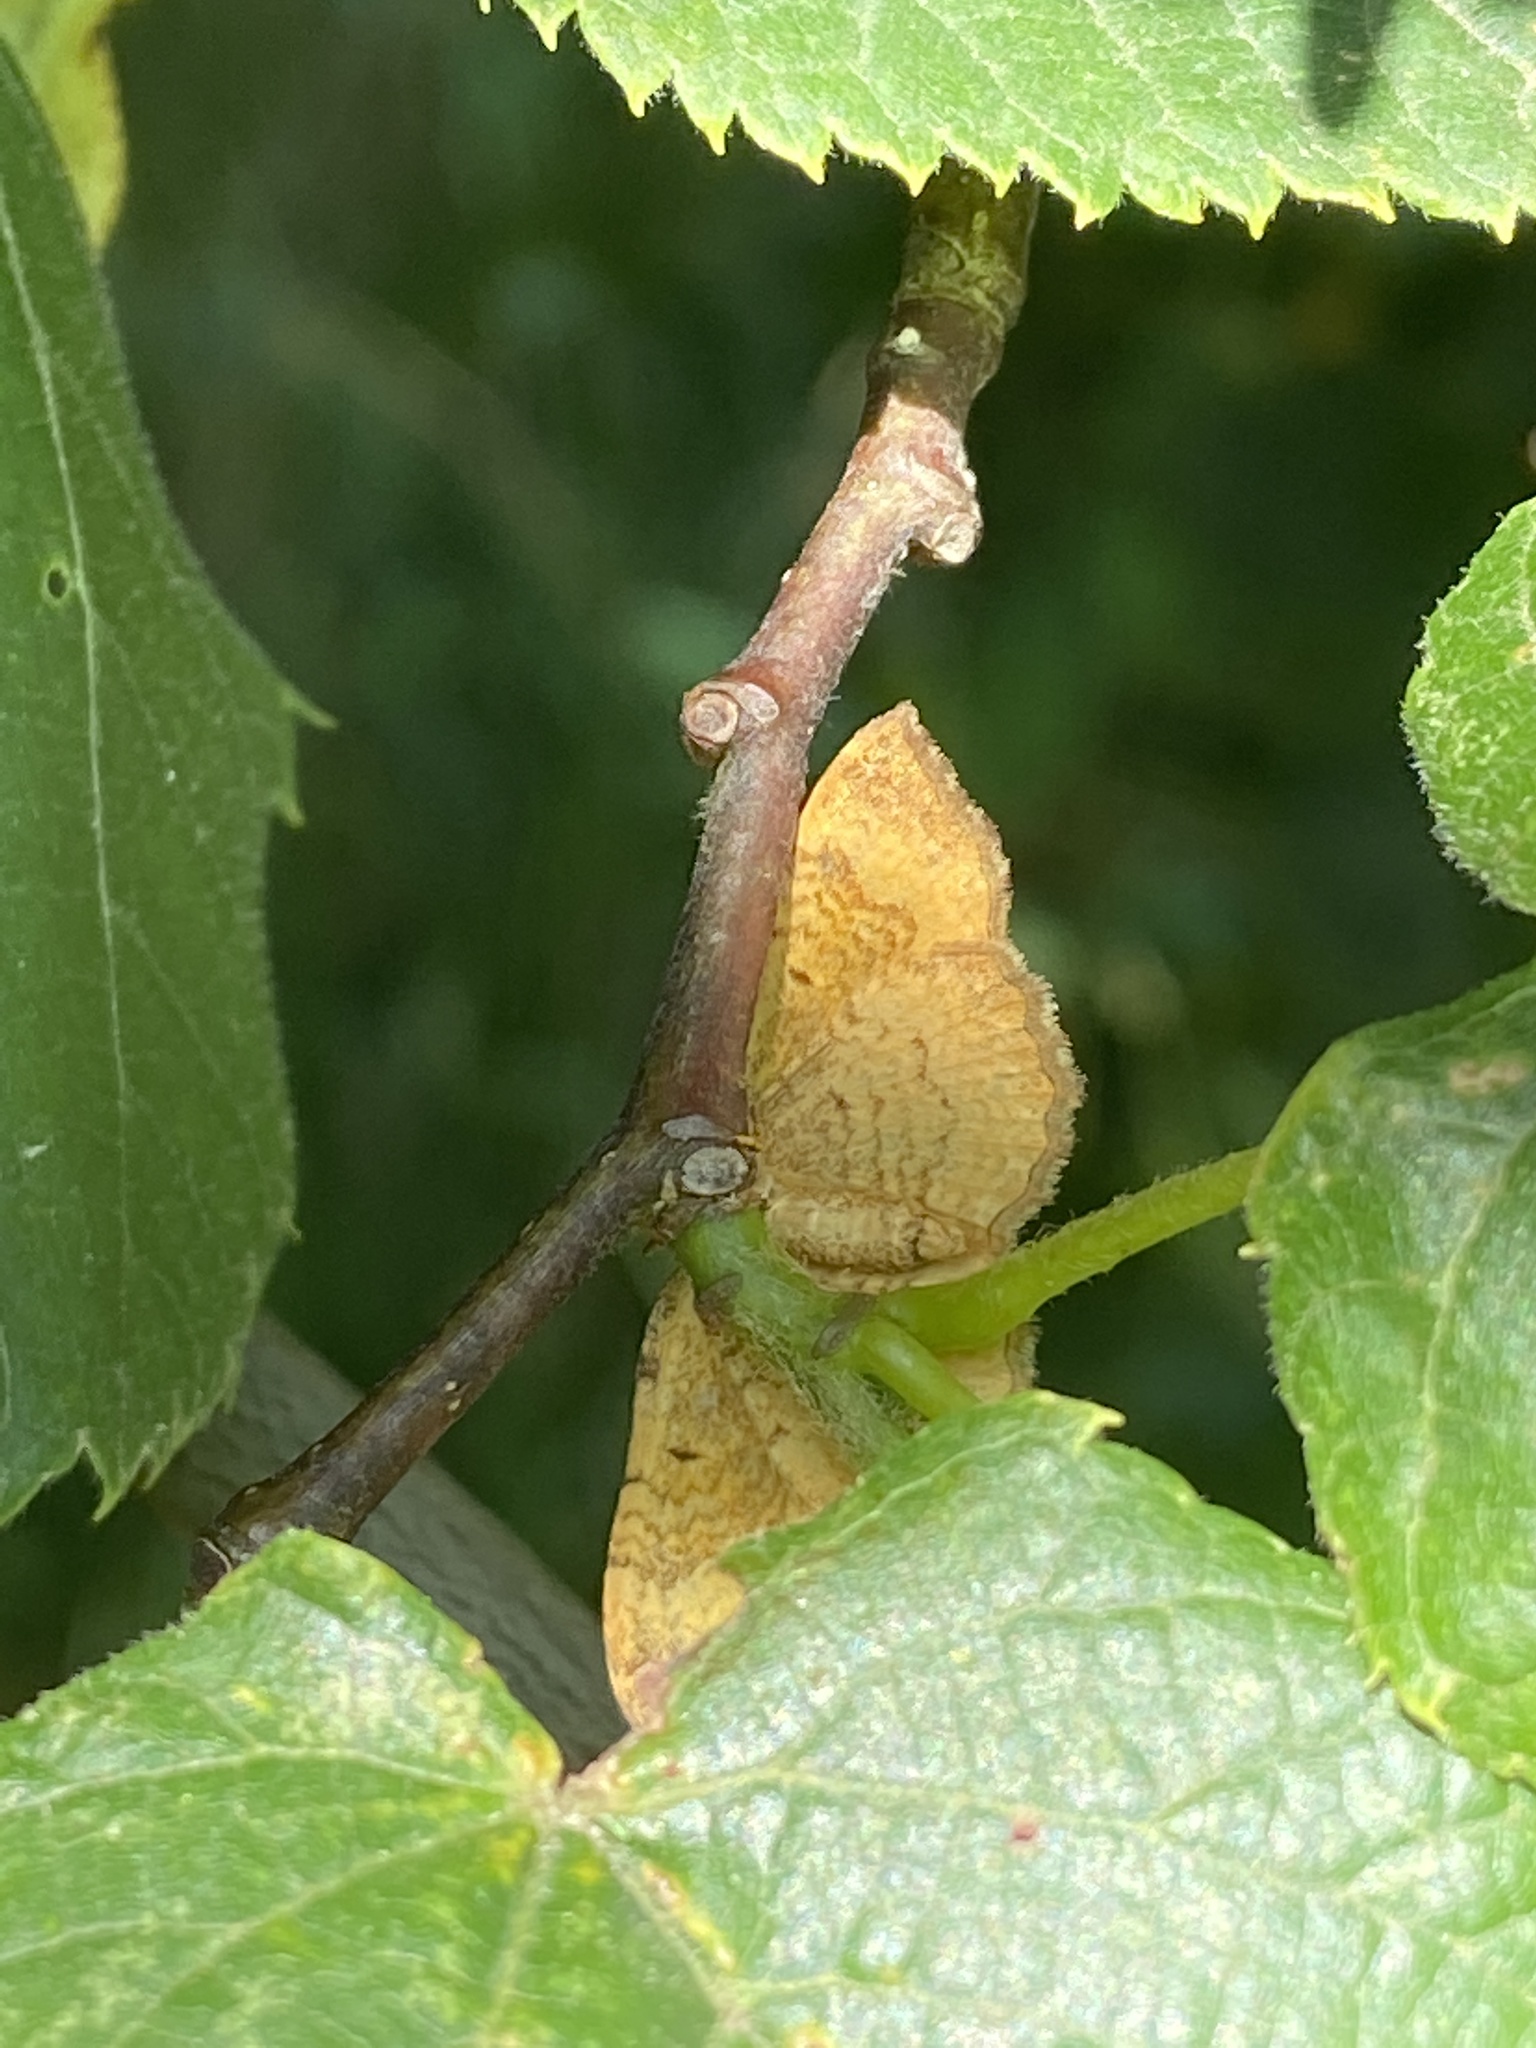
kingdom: Animalia
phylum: Arthropoda
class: Insecta
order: Lepidoptera
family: Geometridae
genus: Camptogramma
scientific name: Camptogramma bilineata
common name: Yellow shell
